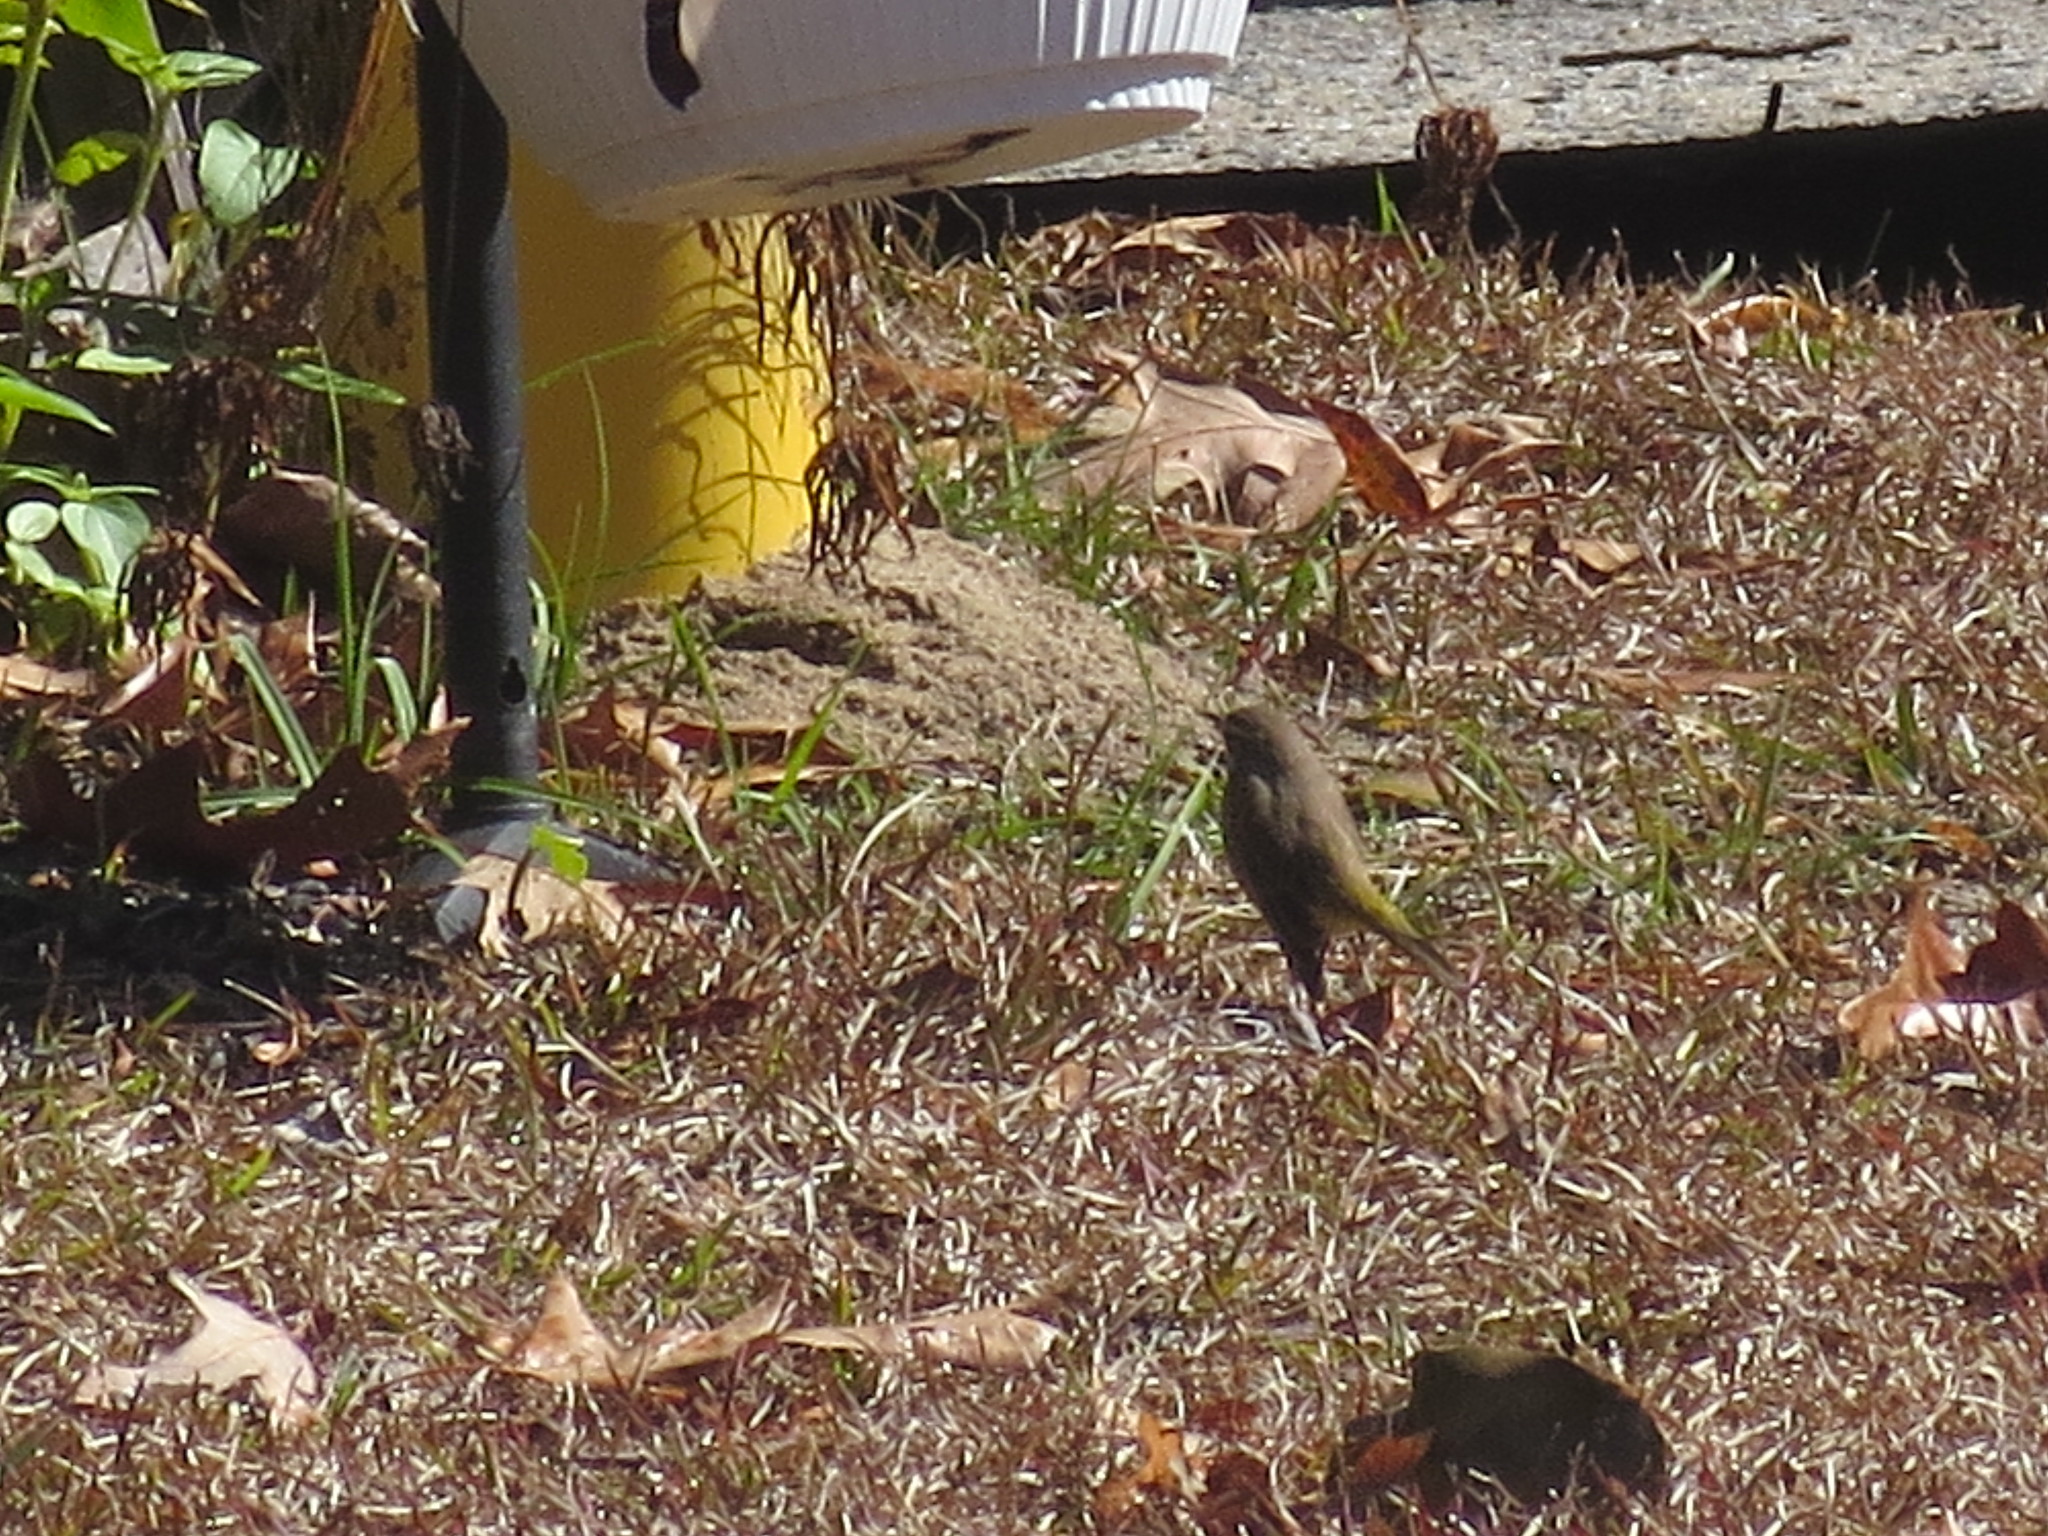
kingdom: Animalia
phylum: Chordata
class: Aves
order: Passeriformes
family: Parulidae
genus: Setophaga
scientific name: Setophaga palmarum
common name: Palm warbler
